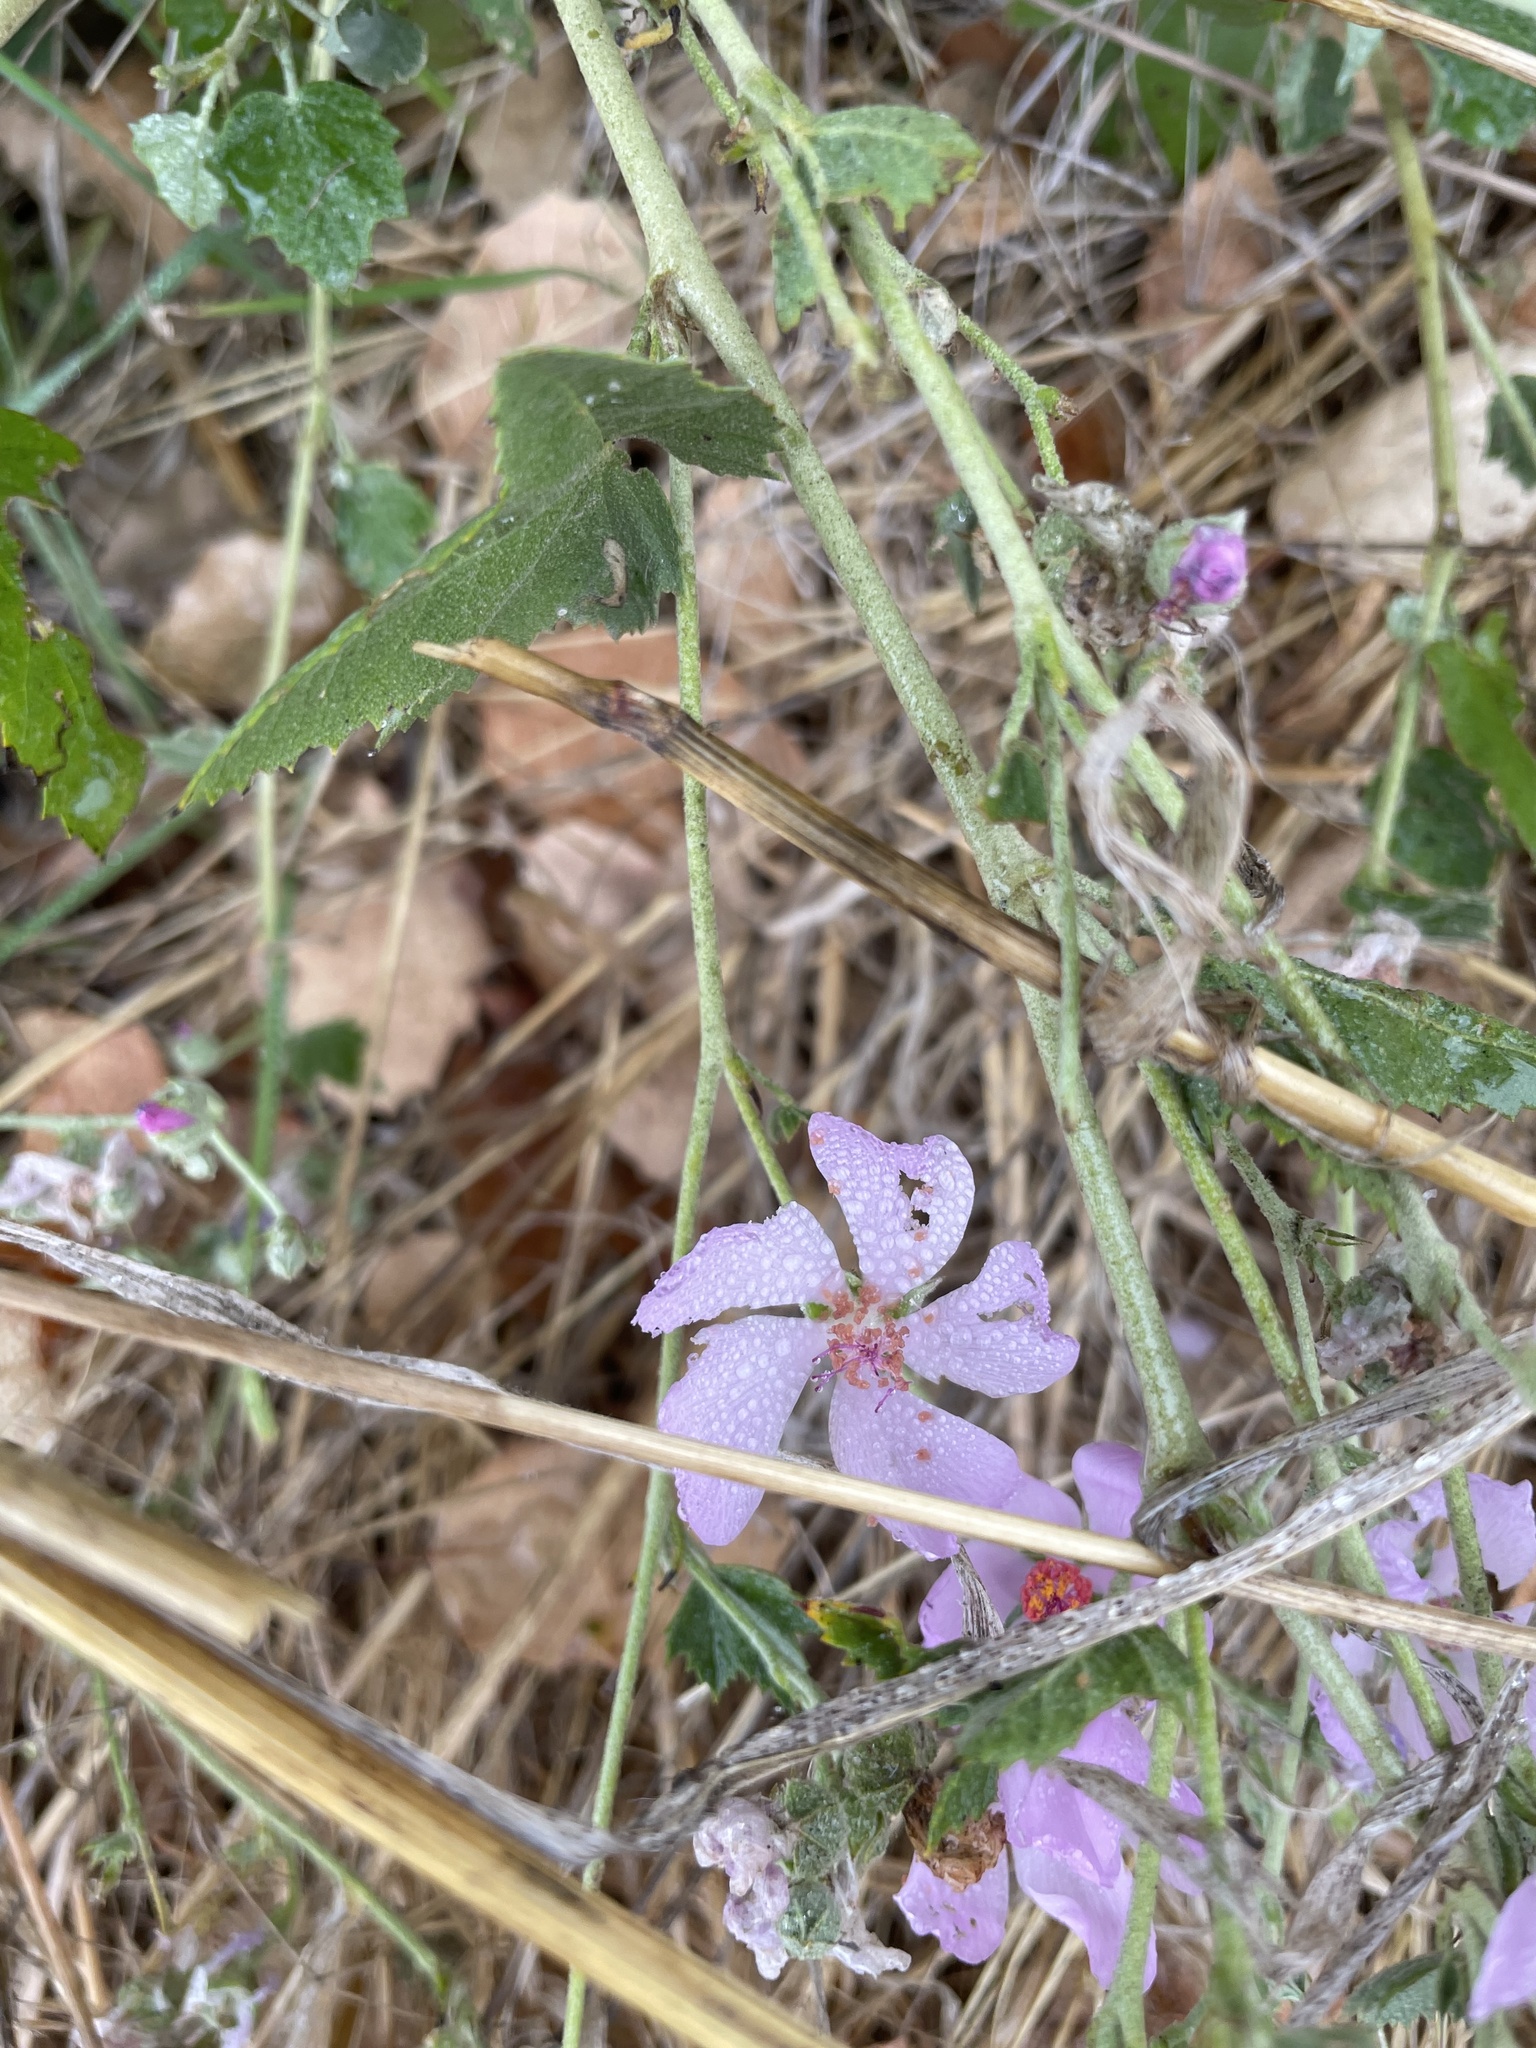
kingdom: Plantae
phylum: Tracheophyta
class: Magnoliopsida
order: Malvales
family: Malvaceae
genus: Malacothamnus
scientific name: Malacothamnus fasciculatus
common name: Sant cruz island bush-mallow
